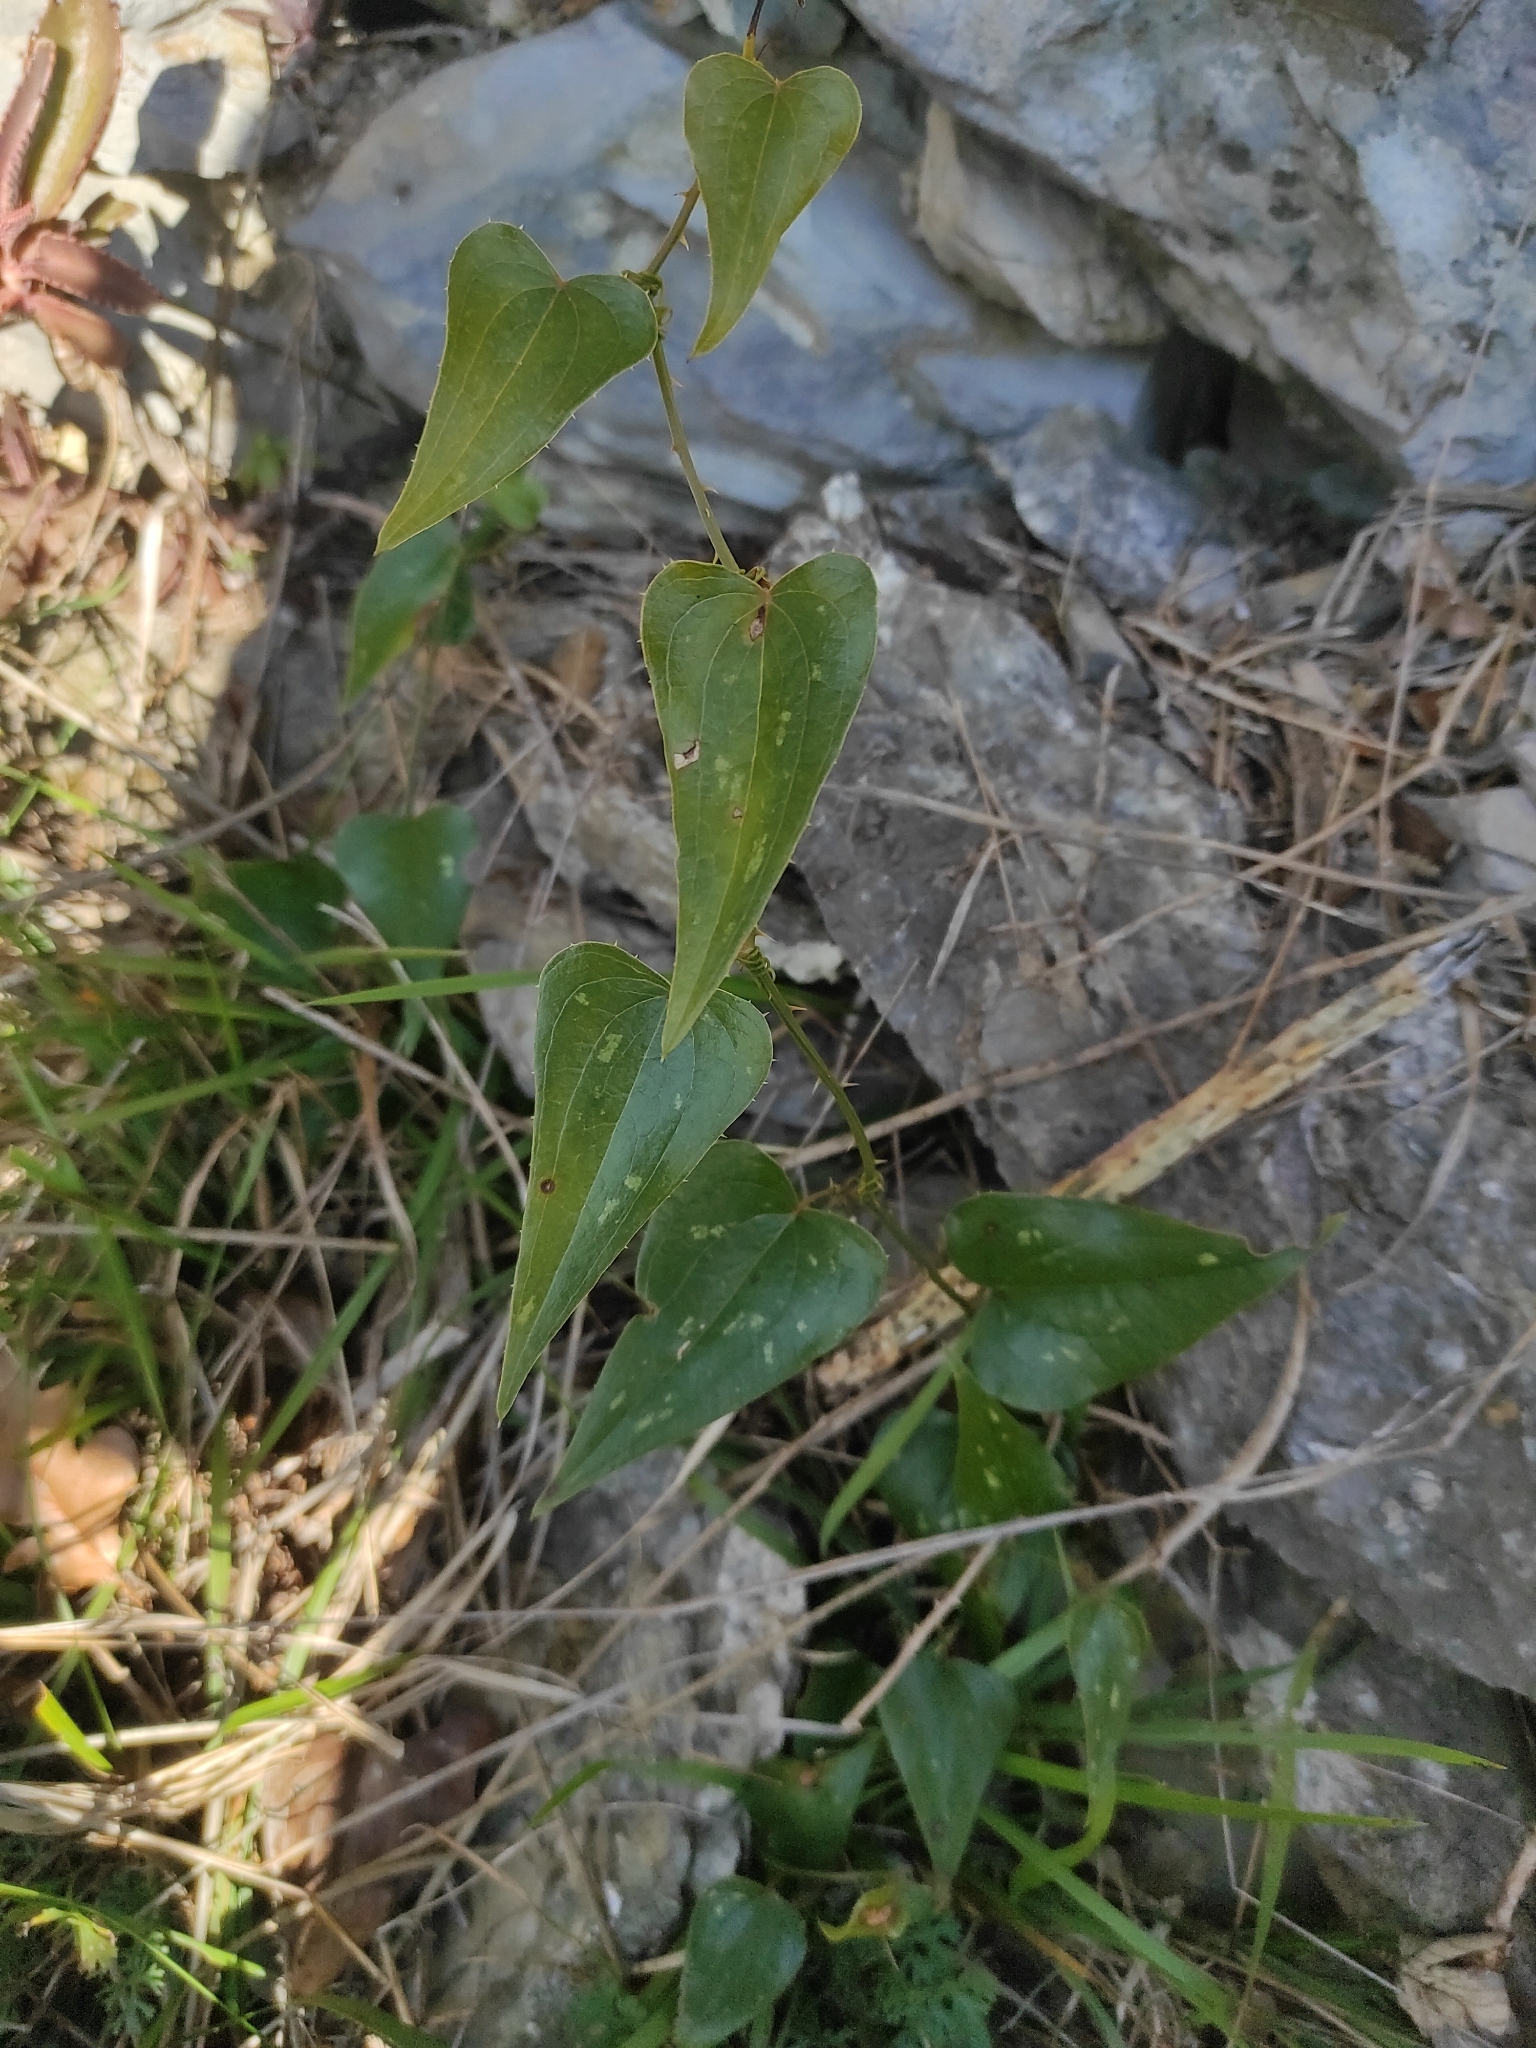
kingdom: Plantae
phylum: Tracheophyta
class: Liliopsida
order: Liliales
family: Smilacaceae
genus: Smilax
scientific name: Smilax aspera
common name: Common smilax
